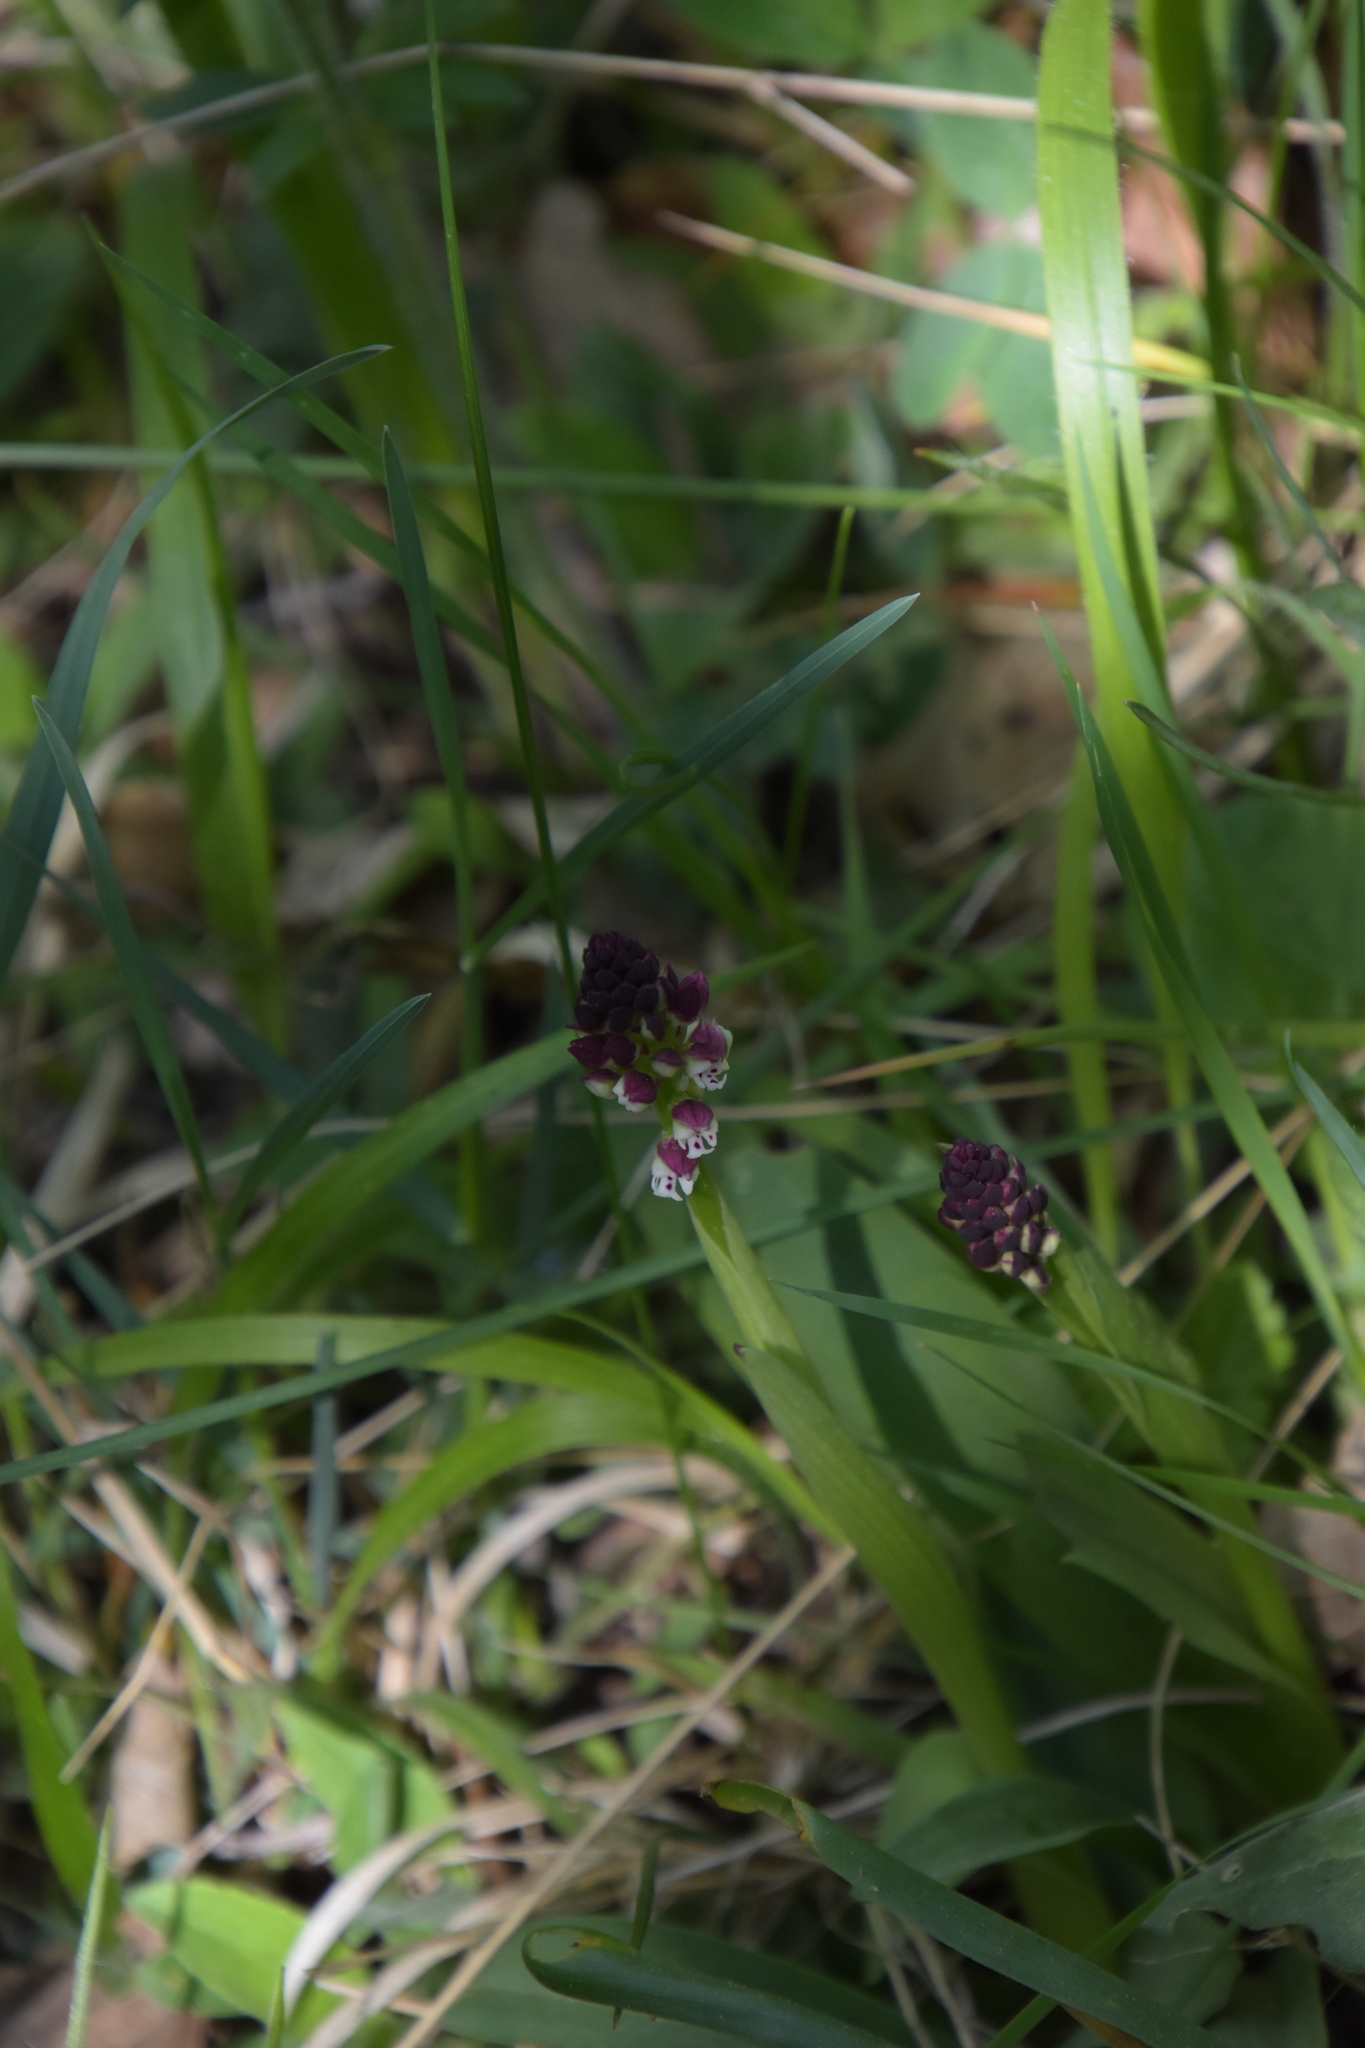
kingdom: Plantae
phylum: Tracheophyta
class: Liliopsida
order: Asparagales
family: Orchidaceae
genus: Neotinea
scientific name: Neotinea ustulata
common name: Burnt orchid
